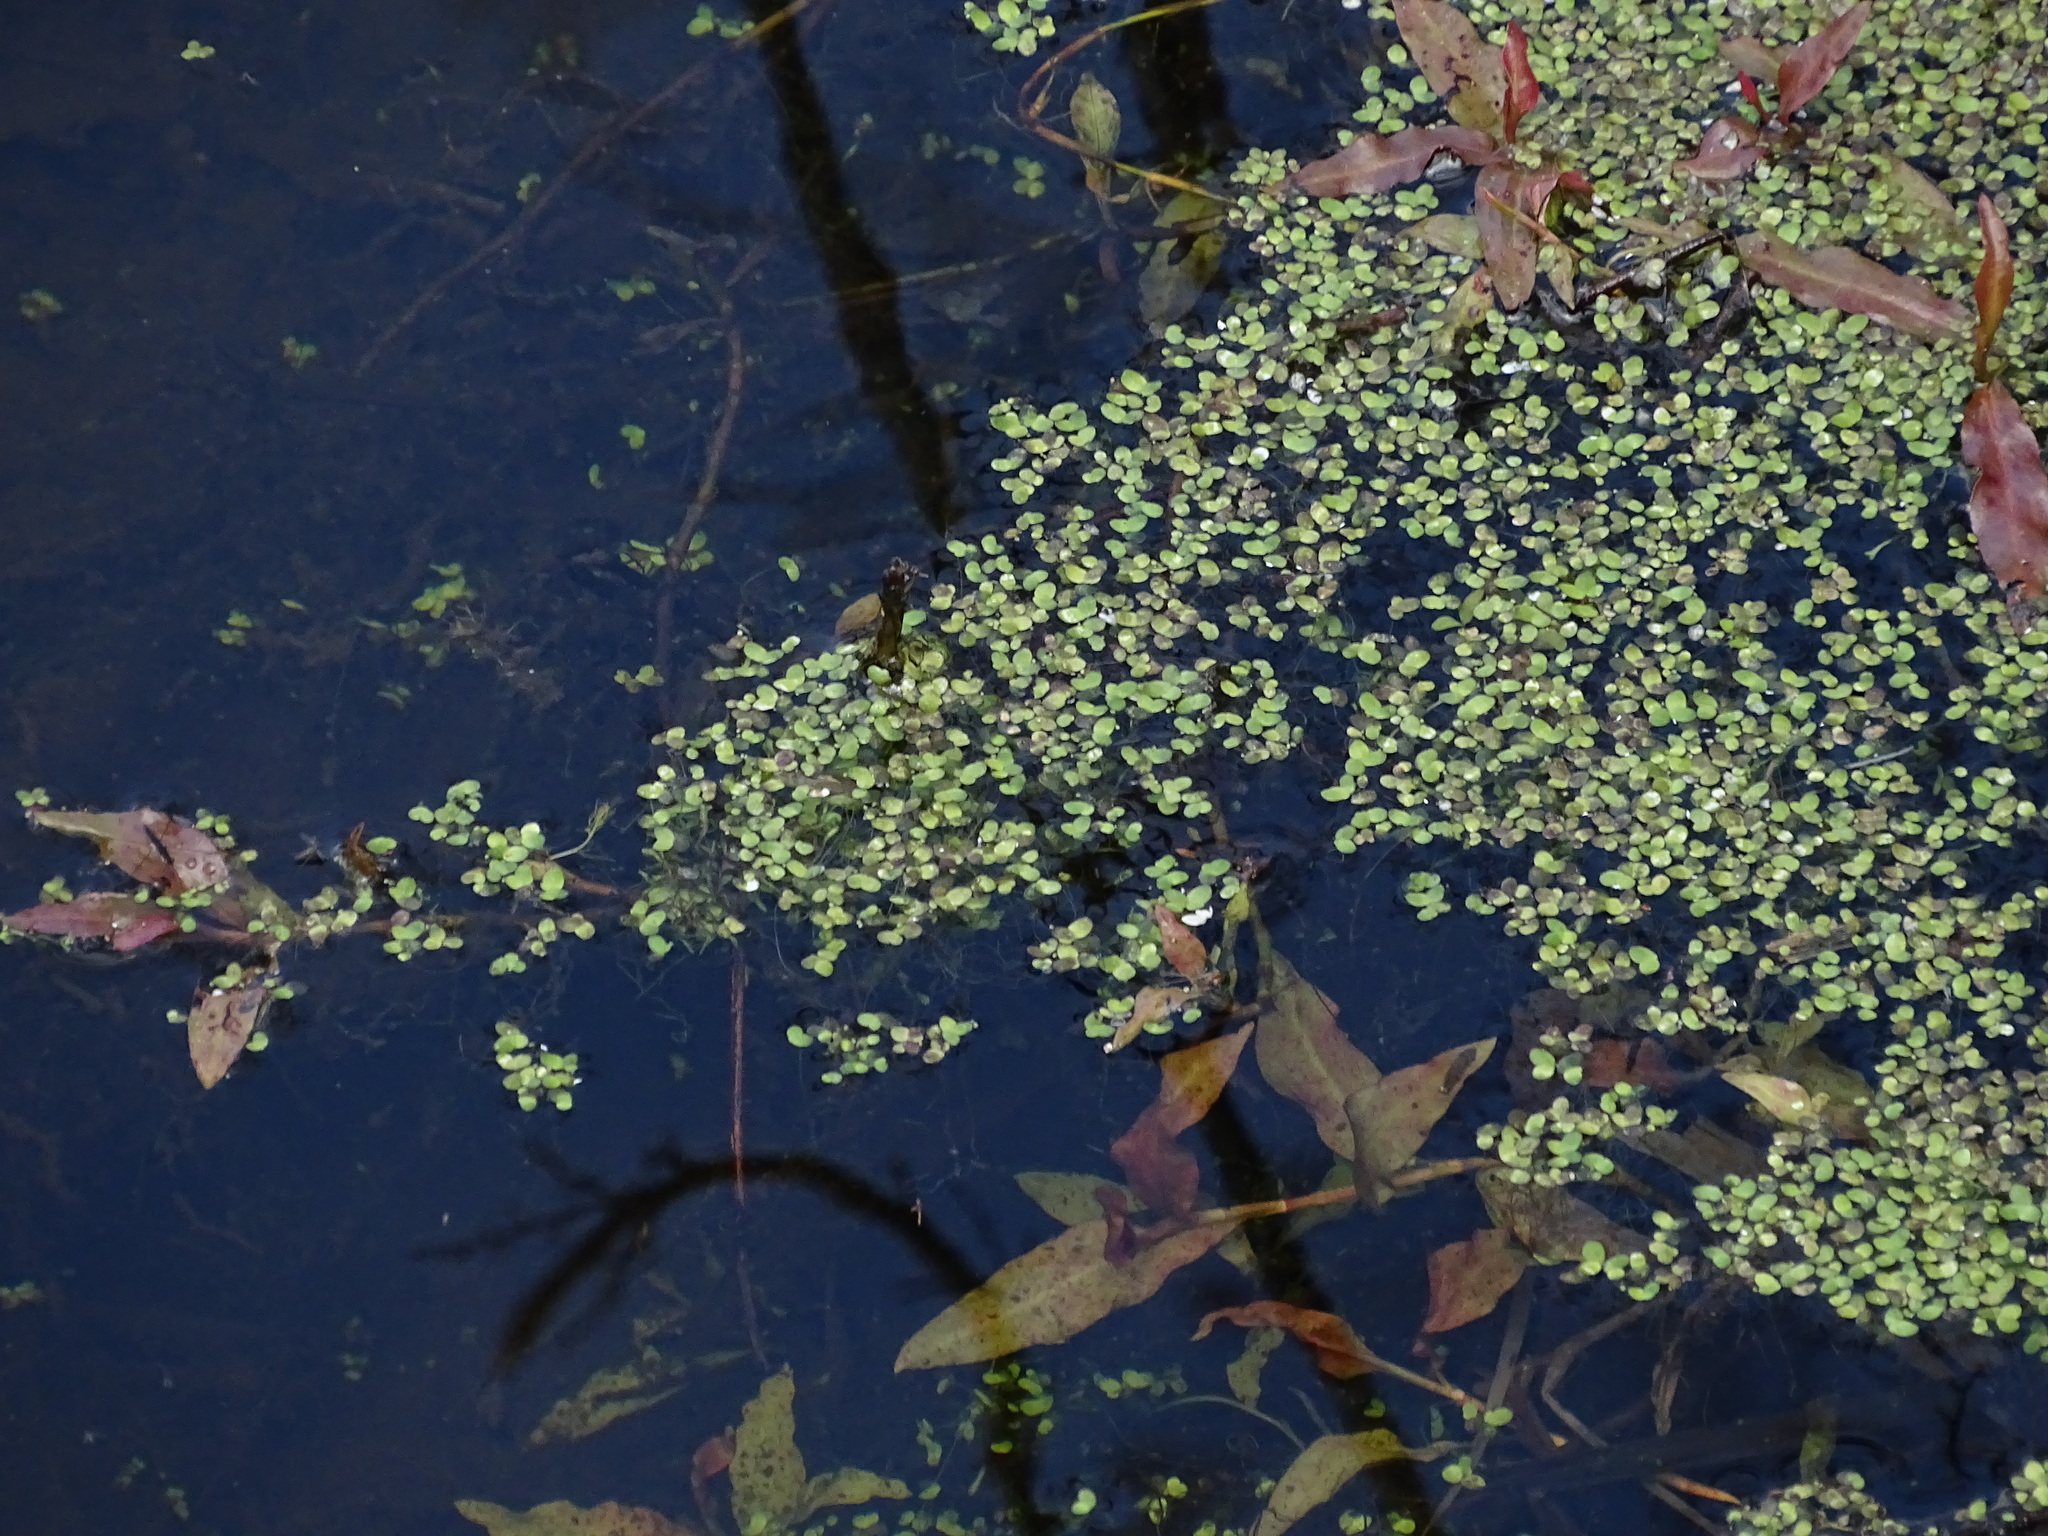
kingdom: Plantae
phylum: Tracheophyta
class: Liliopsida
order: Alismatales
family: Araceae
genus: Lemna
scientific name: Lemna aequinoctialis
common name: Duckweed
